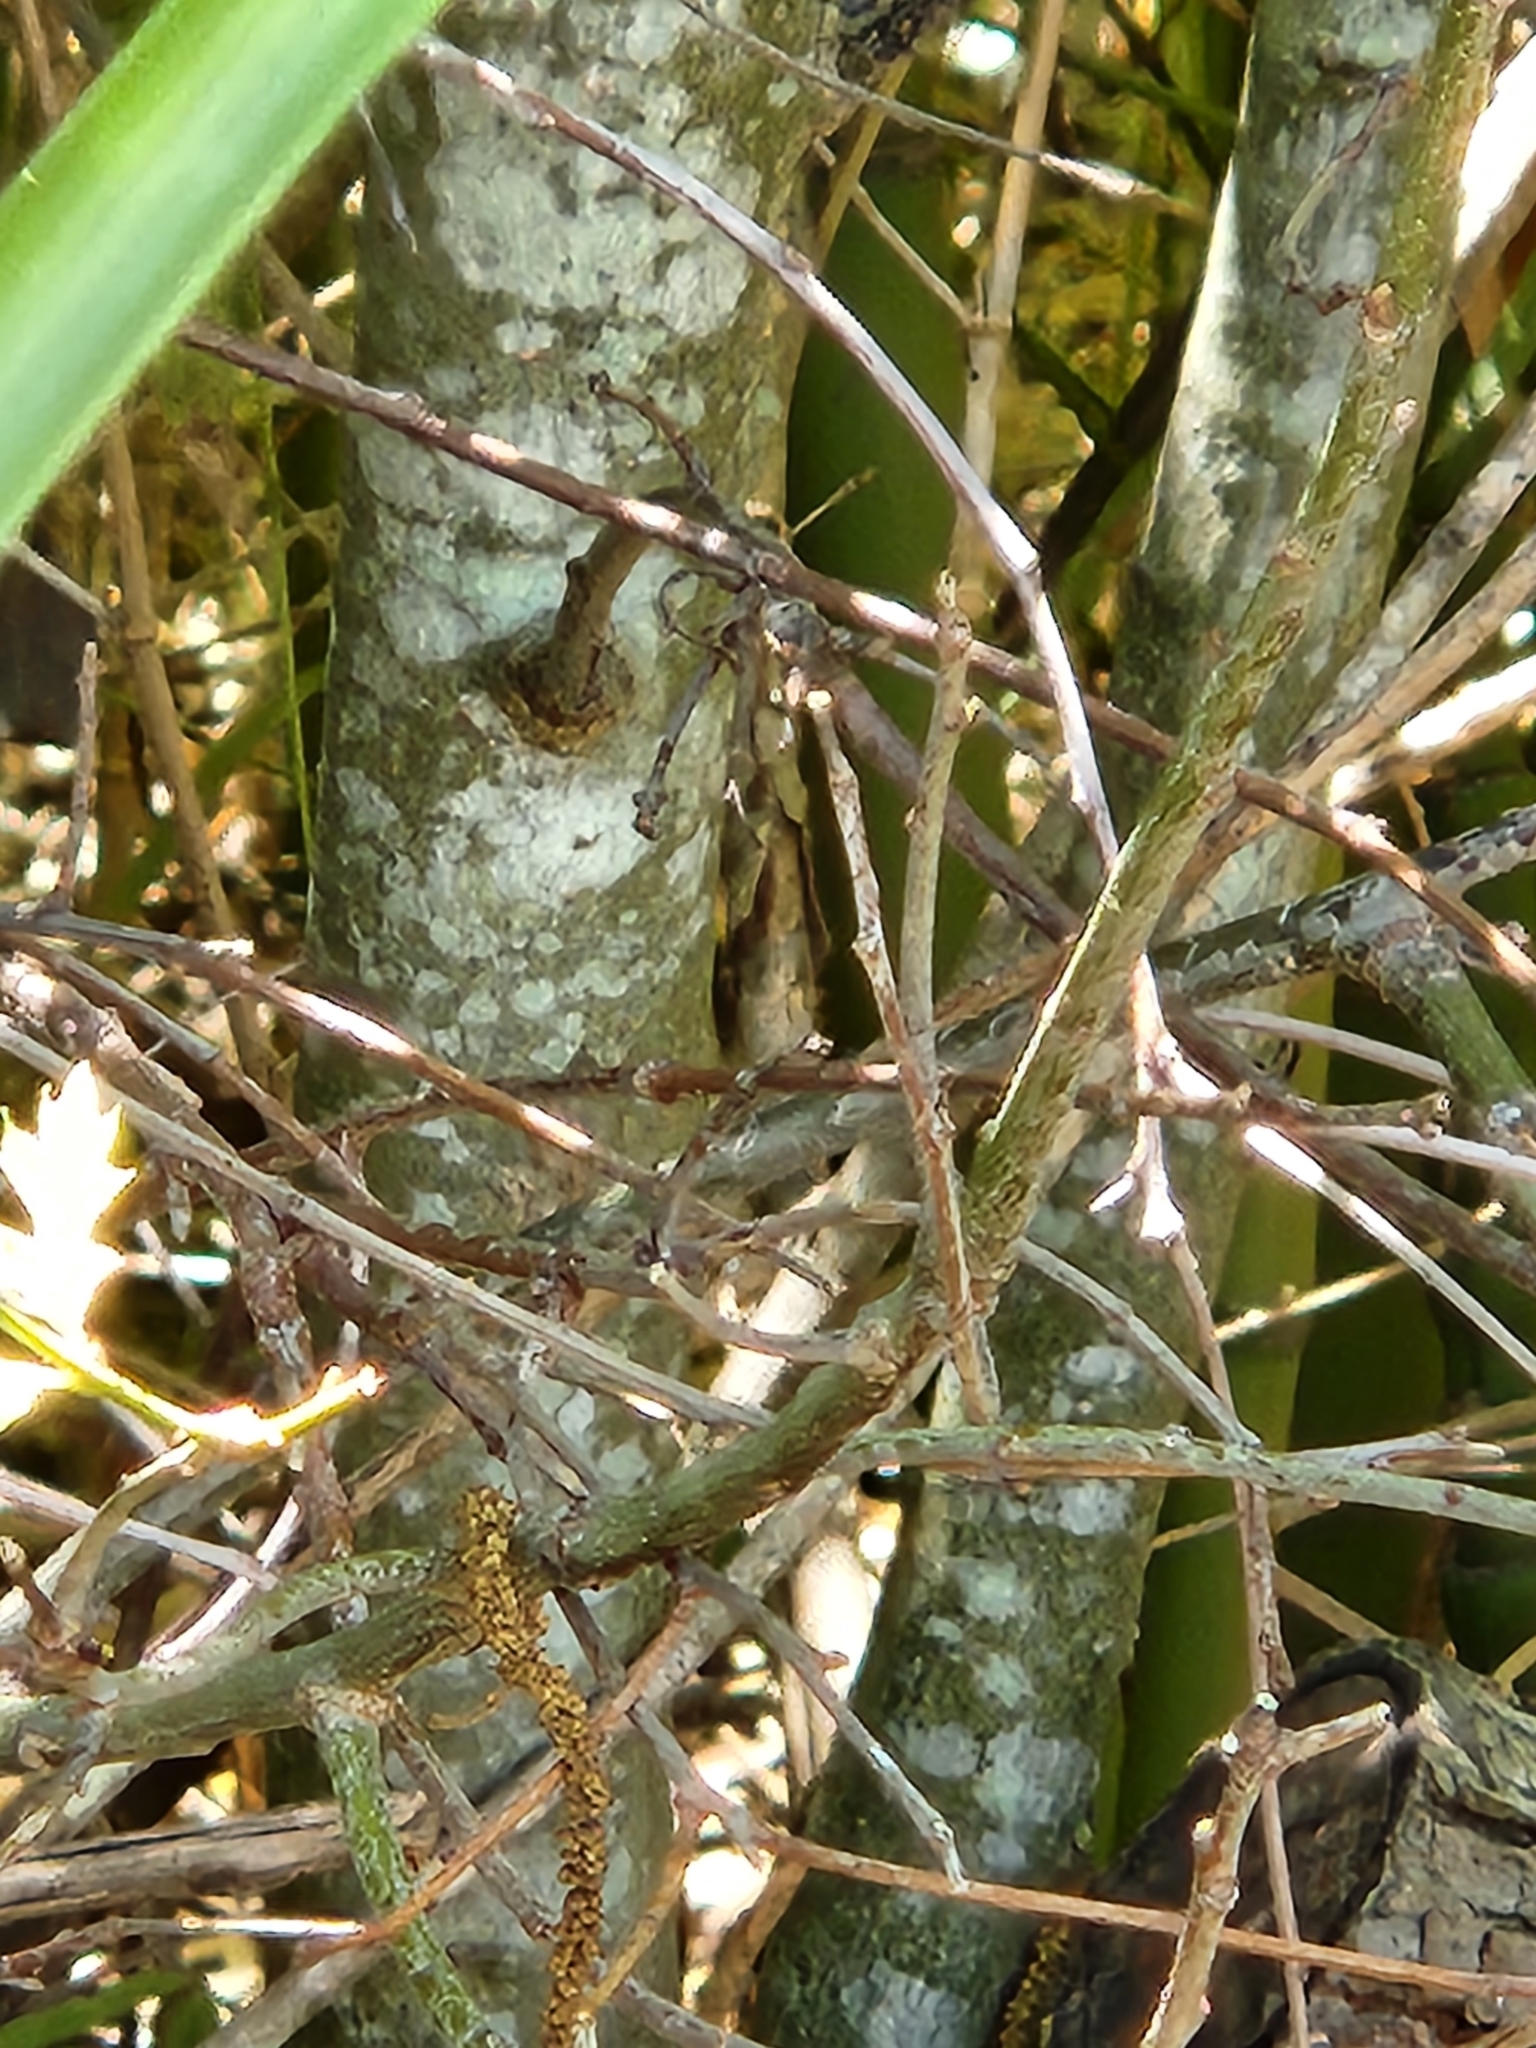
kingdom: Plantae
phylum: Tracheophyta
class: Magnoliopsida
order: Fagales
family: Fagaceae
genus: Quercus
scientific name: Quercus buckleyi
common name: Buckley oak
